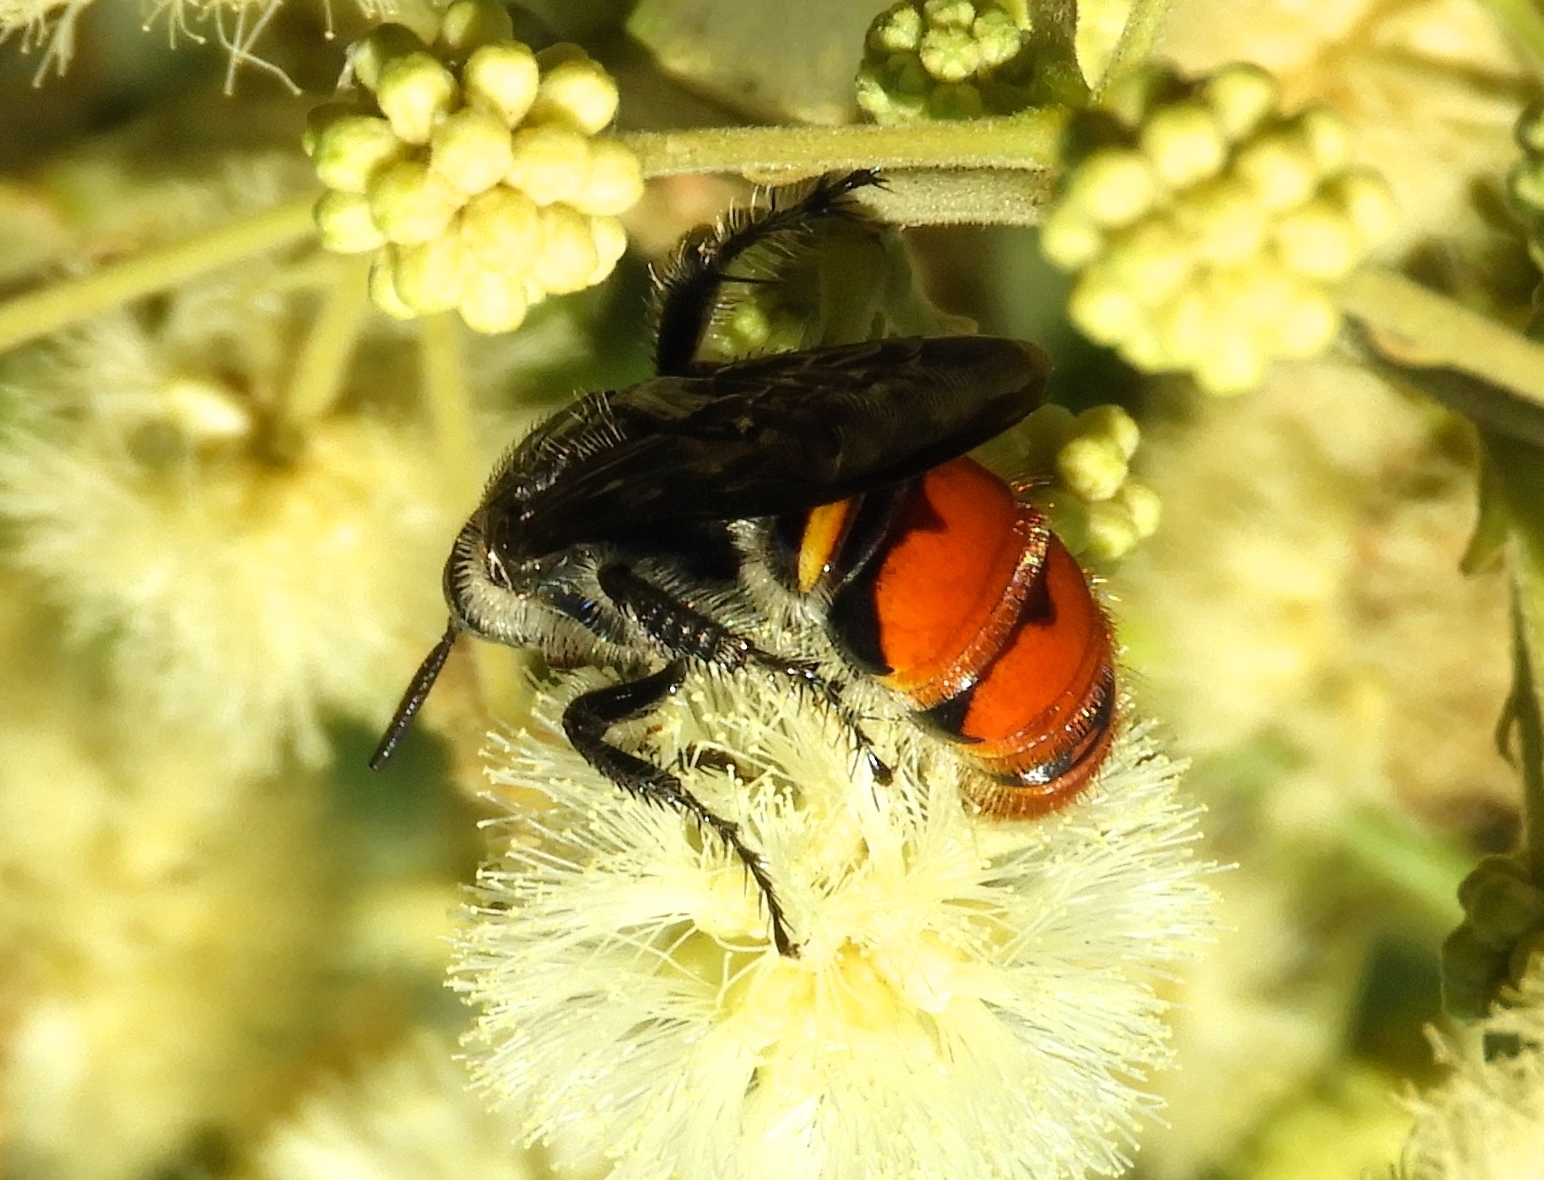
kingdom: Animalia
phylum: Arthropoda
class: Insecta
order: Hymenoptera
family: Scoliidae
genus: Dielis
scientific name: Dielis tolteca
